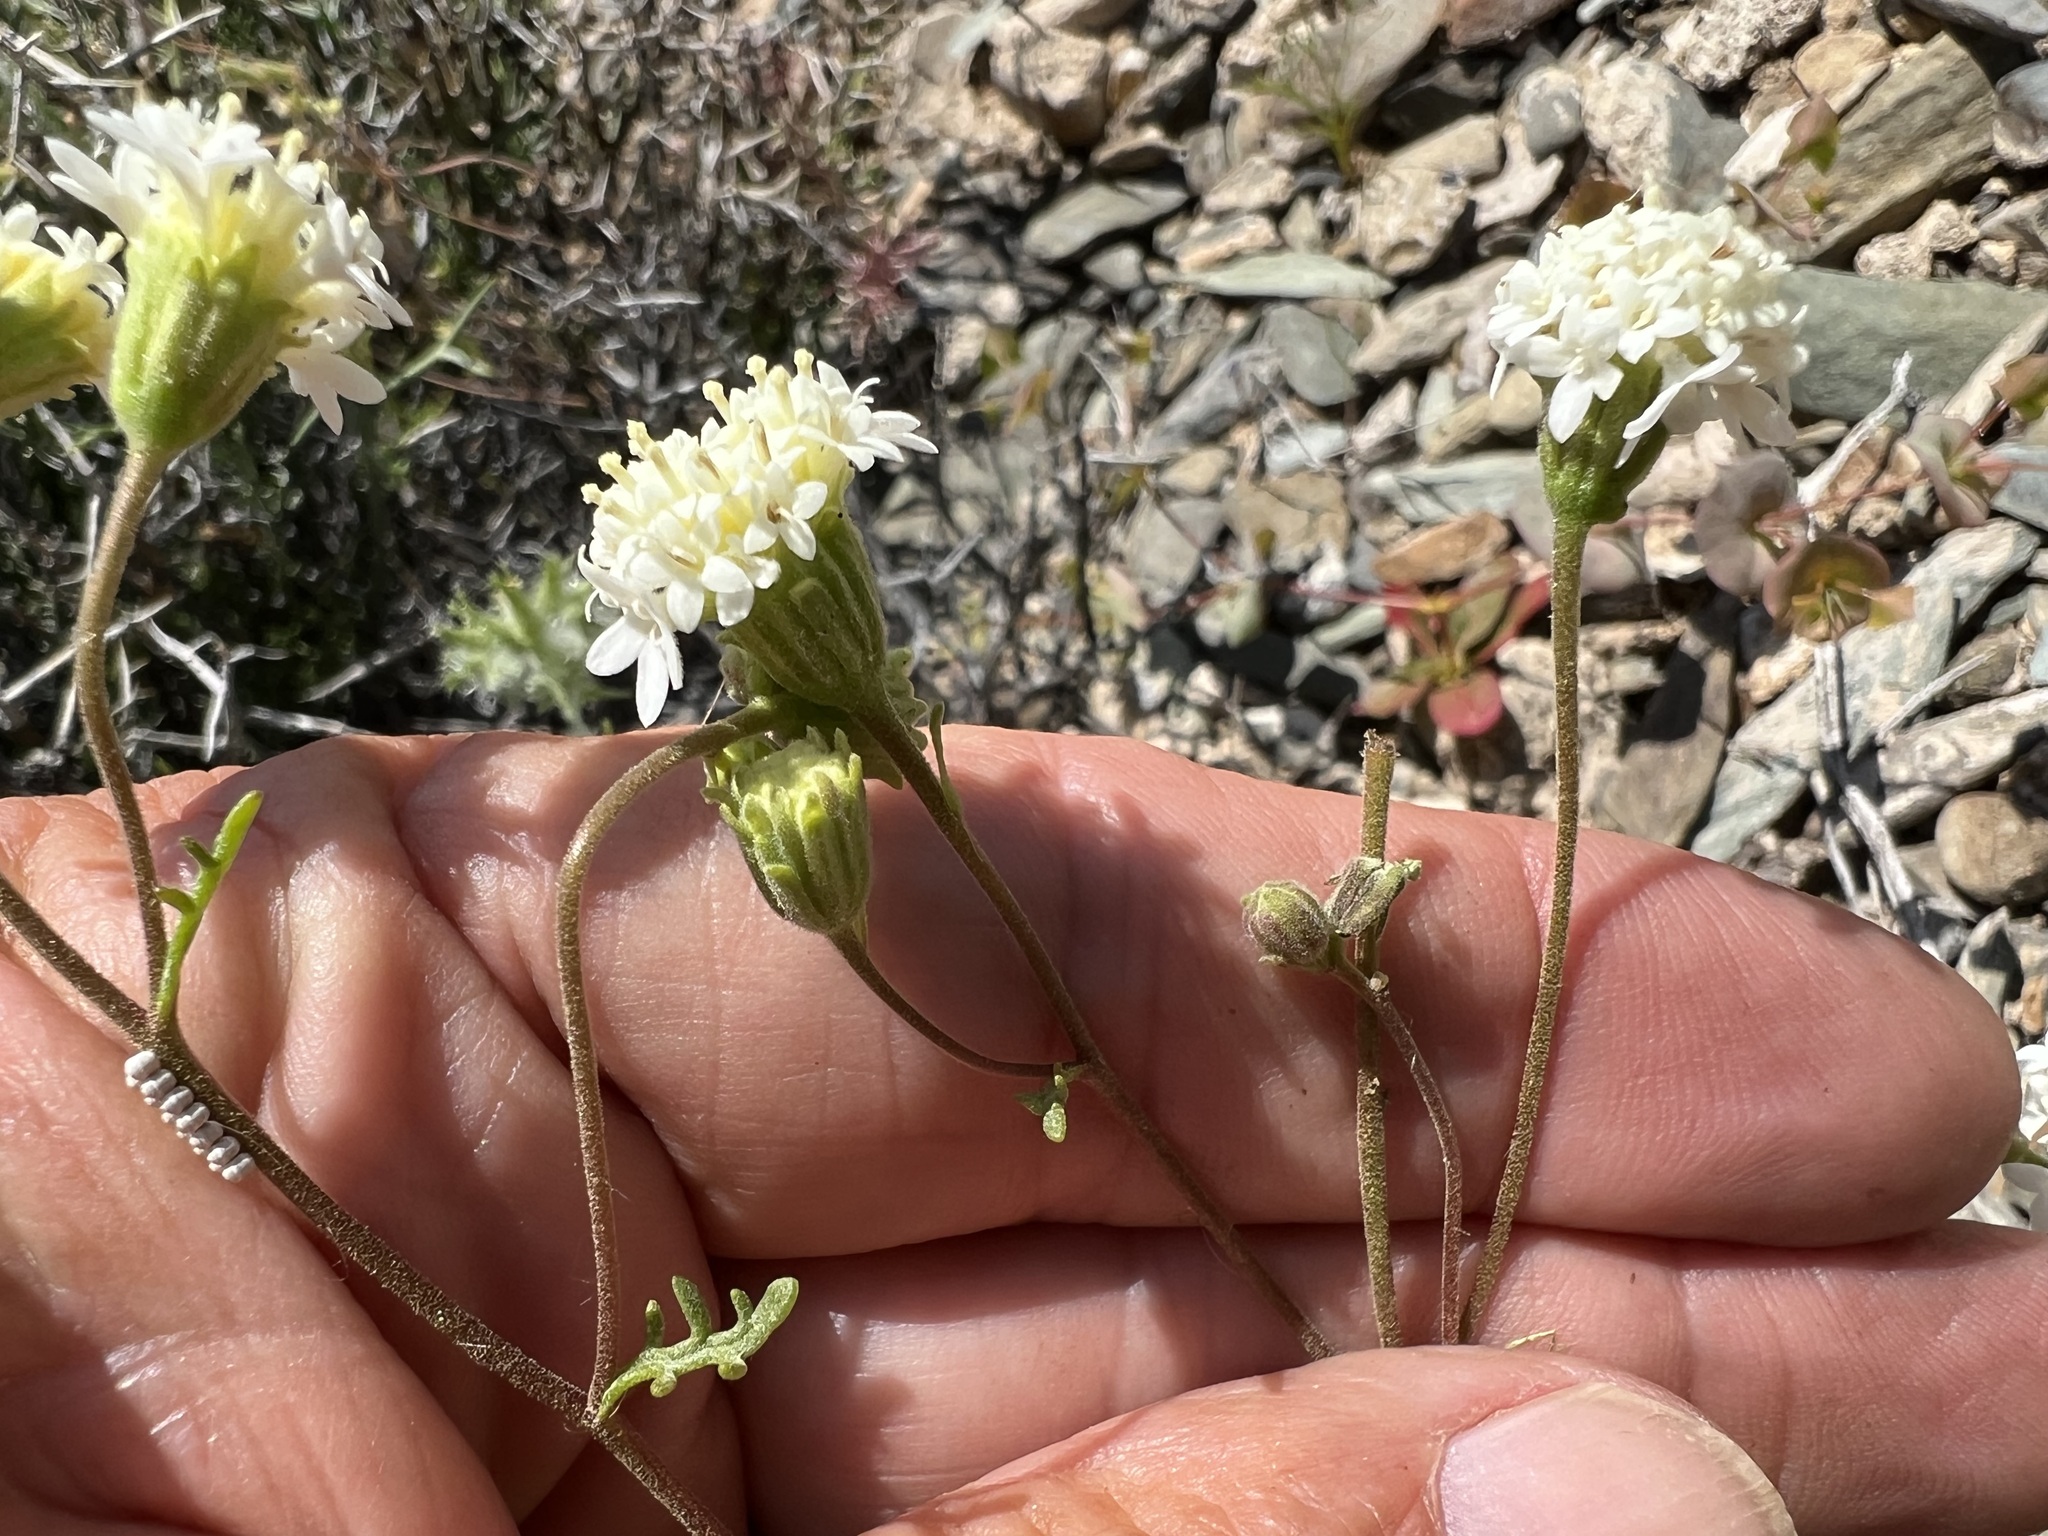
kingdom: Plantae
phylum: Tracheophyta
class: Magnoliopsida
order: Asterales
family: Asteraceae
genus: Chaenactis
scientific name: Chaenactis stevioides
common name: Desert pincushion
